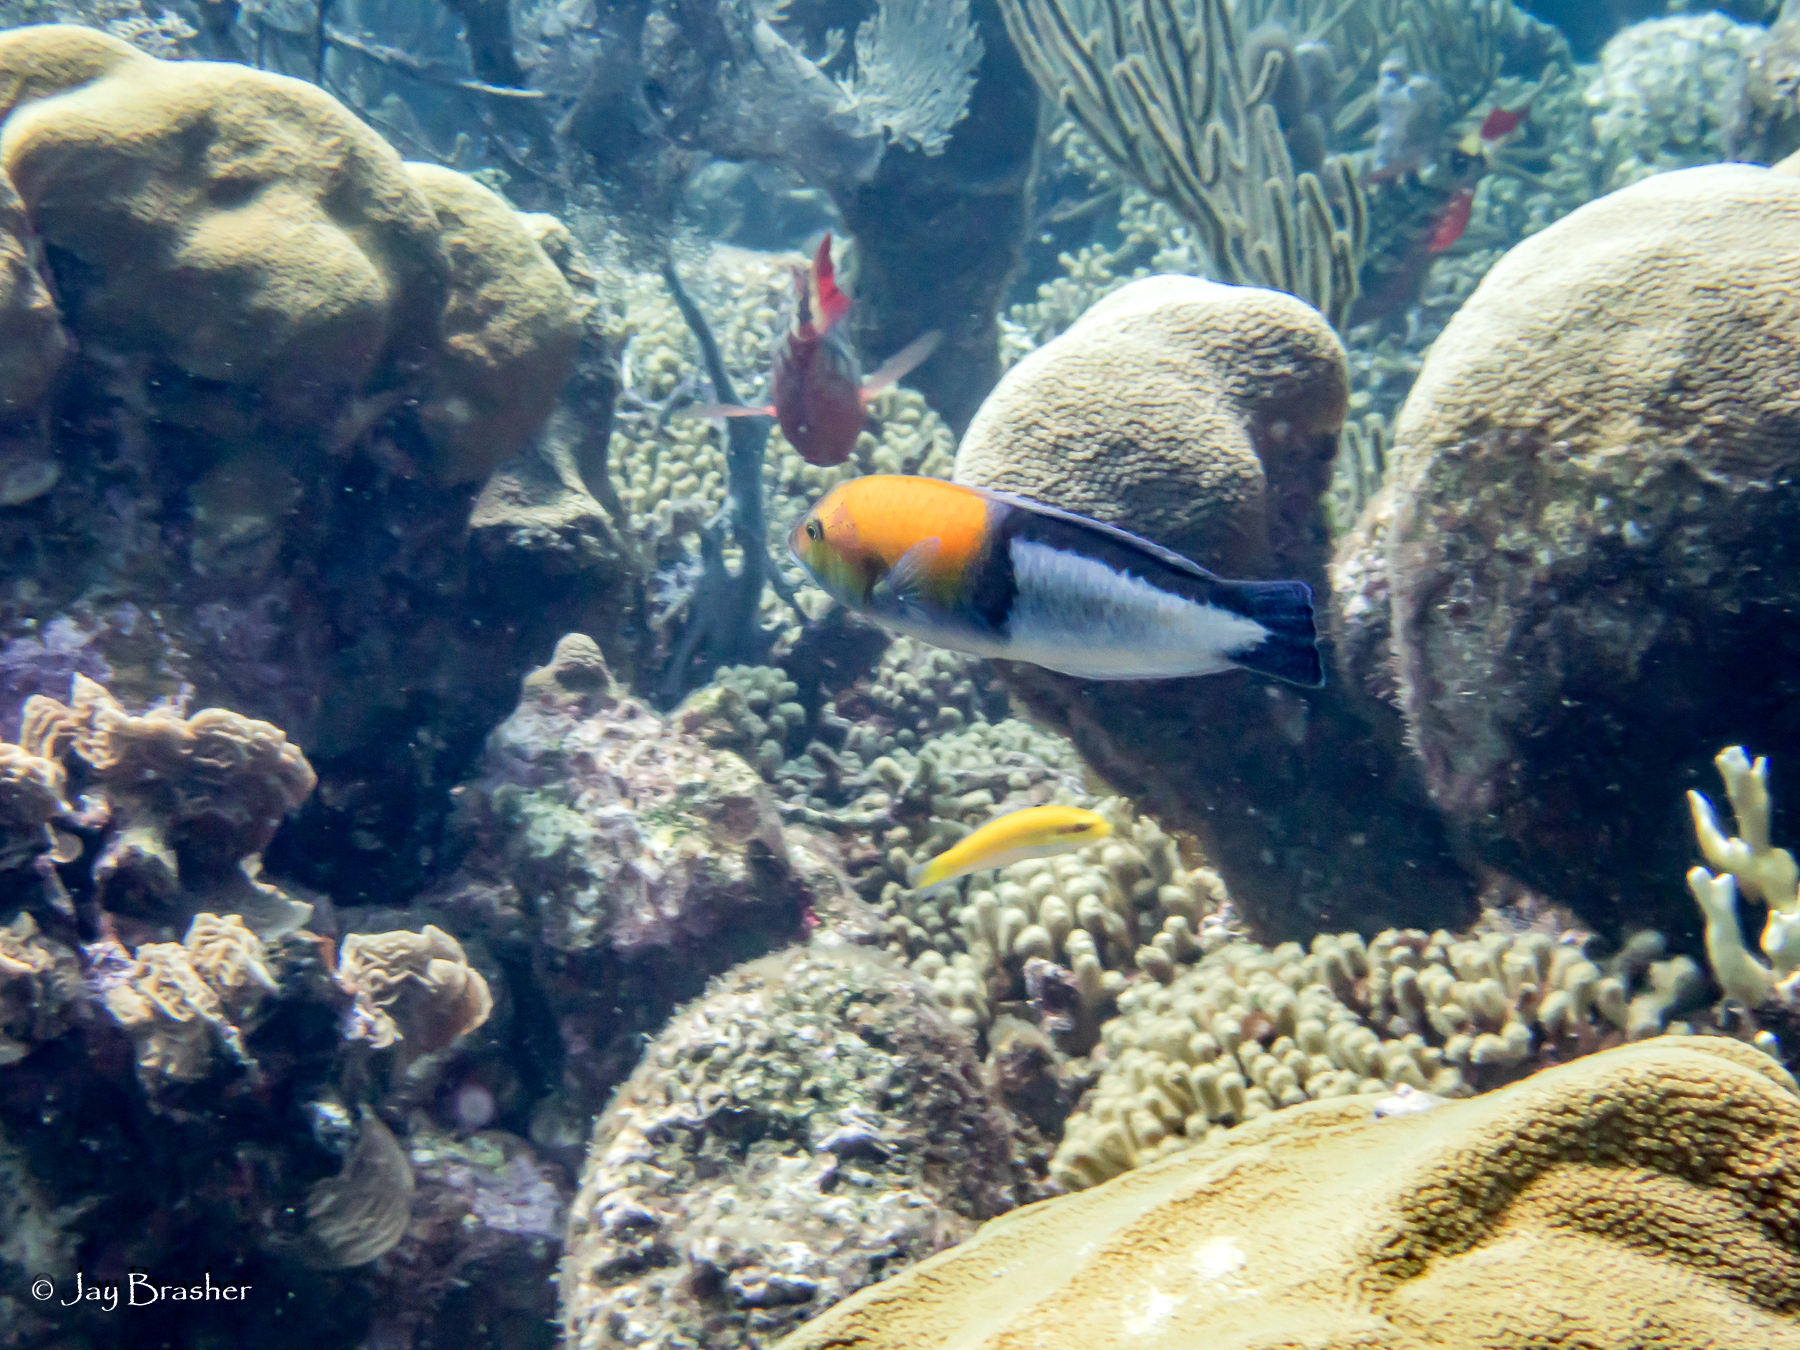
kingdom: Animalia
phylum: Chordata
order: Perciformes
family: Labridae
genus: Halichoeres
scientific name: Halichoeres garnoti
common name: Yellowhead wrasse
